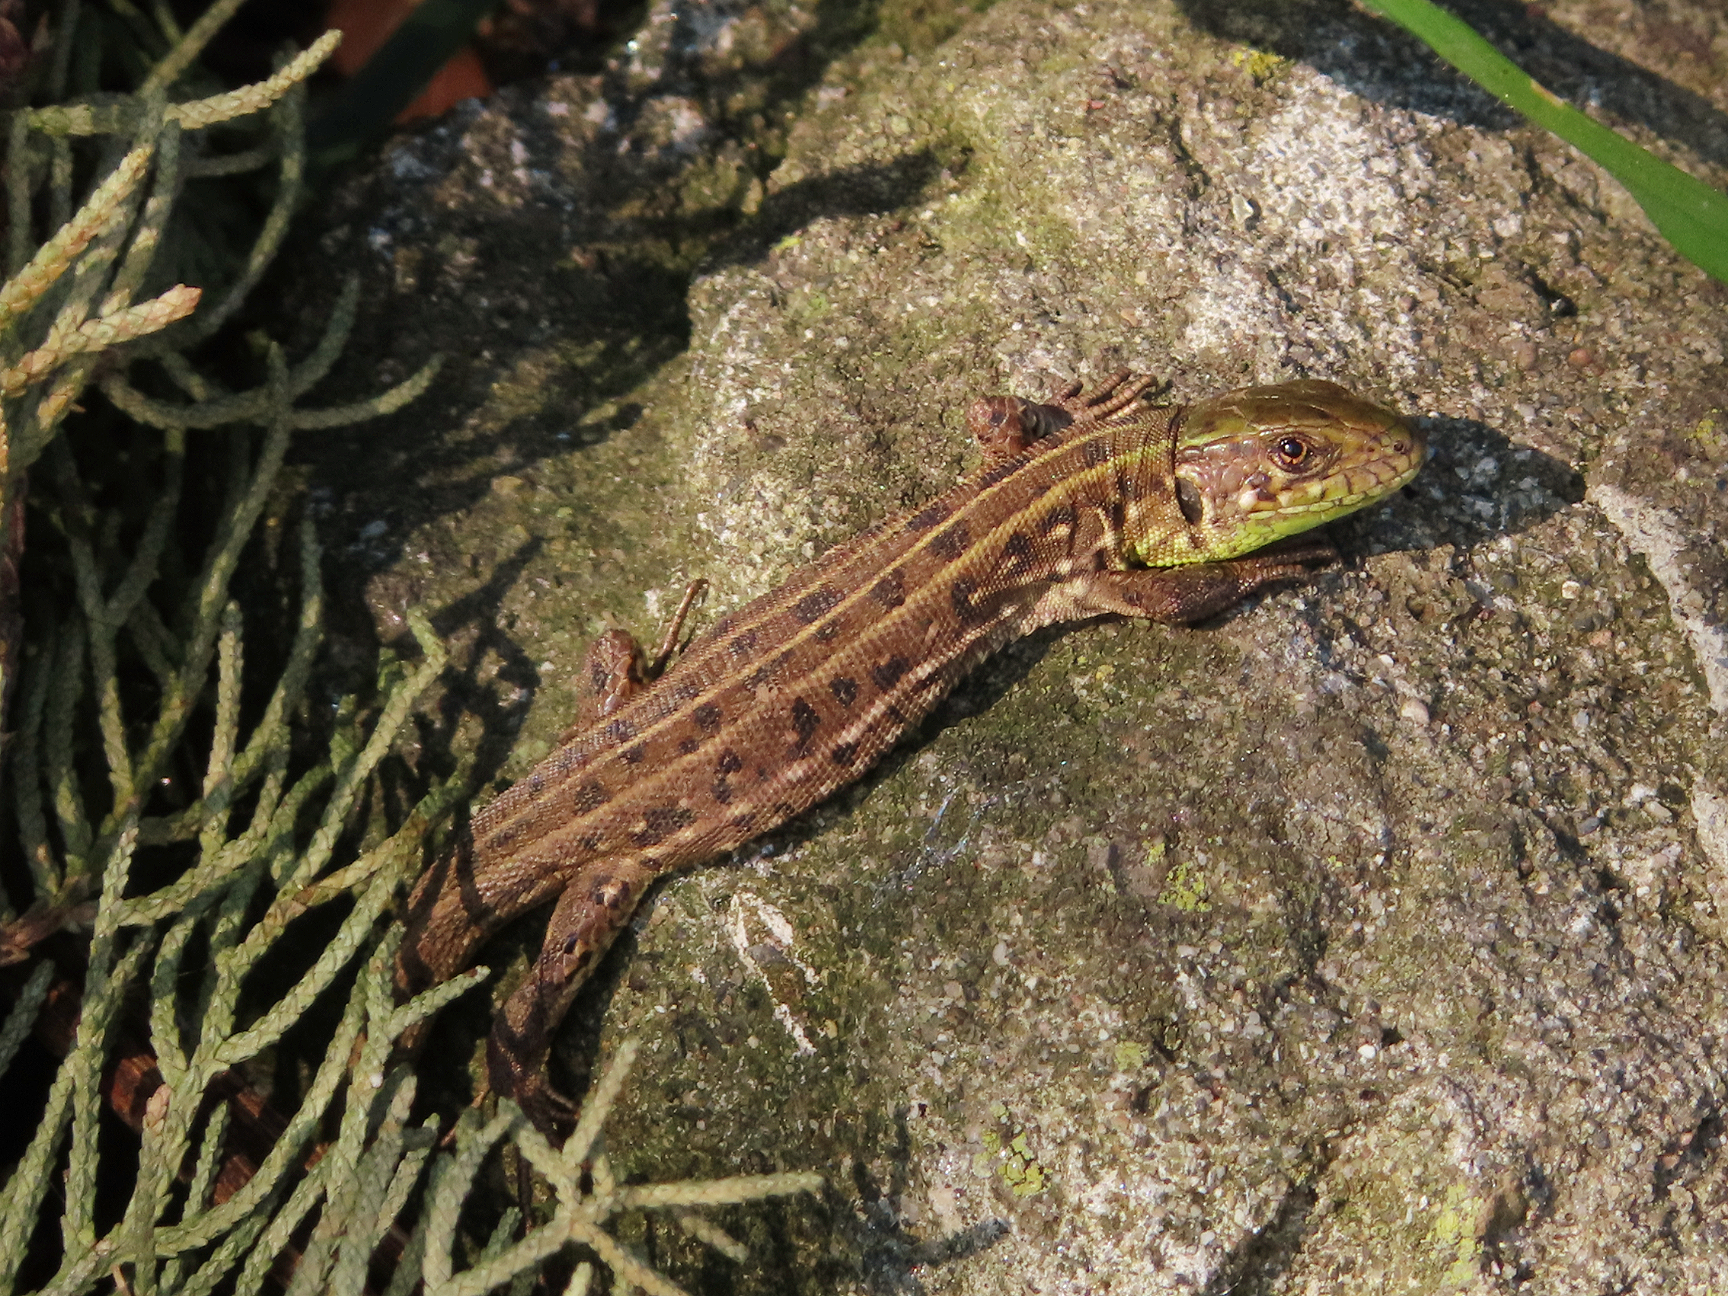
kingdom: Animalia
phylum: Chordata
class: Squamata
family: Lacertidae
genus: Lacerta
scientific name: Lacerta agilis
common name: Sand lizard
